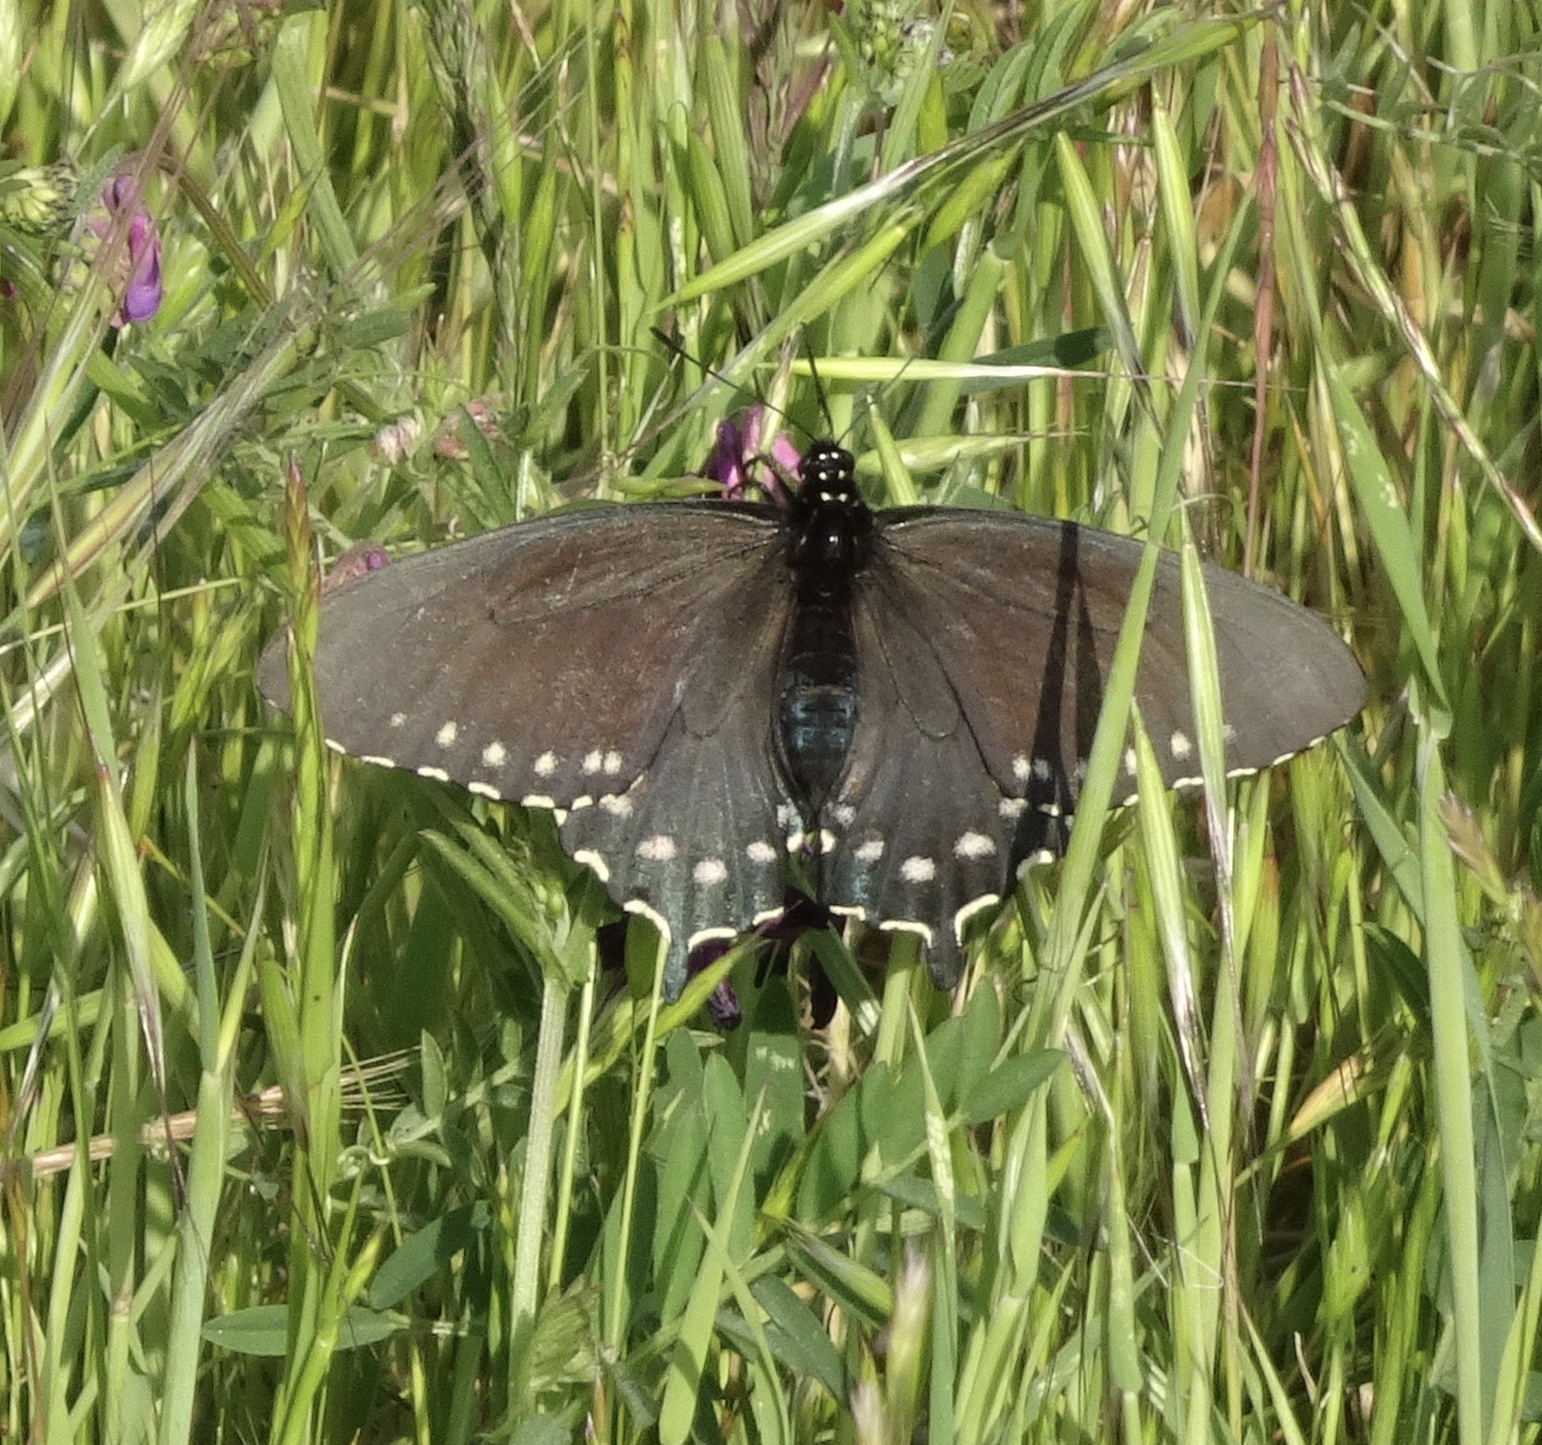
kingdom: Animalia
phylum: Arthropoda
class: Insecta
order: Lepidoptera
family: Papilionidae
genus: Battus
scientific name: Battus philenor
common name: Pipevine swallowtail
